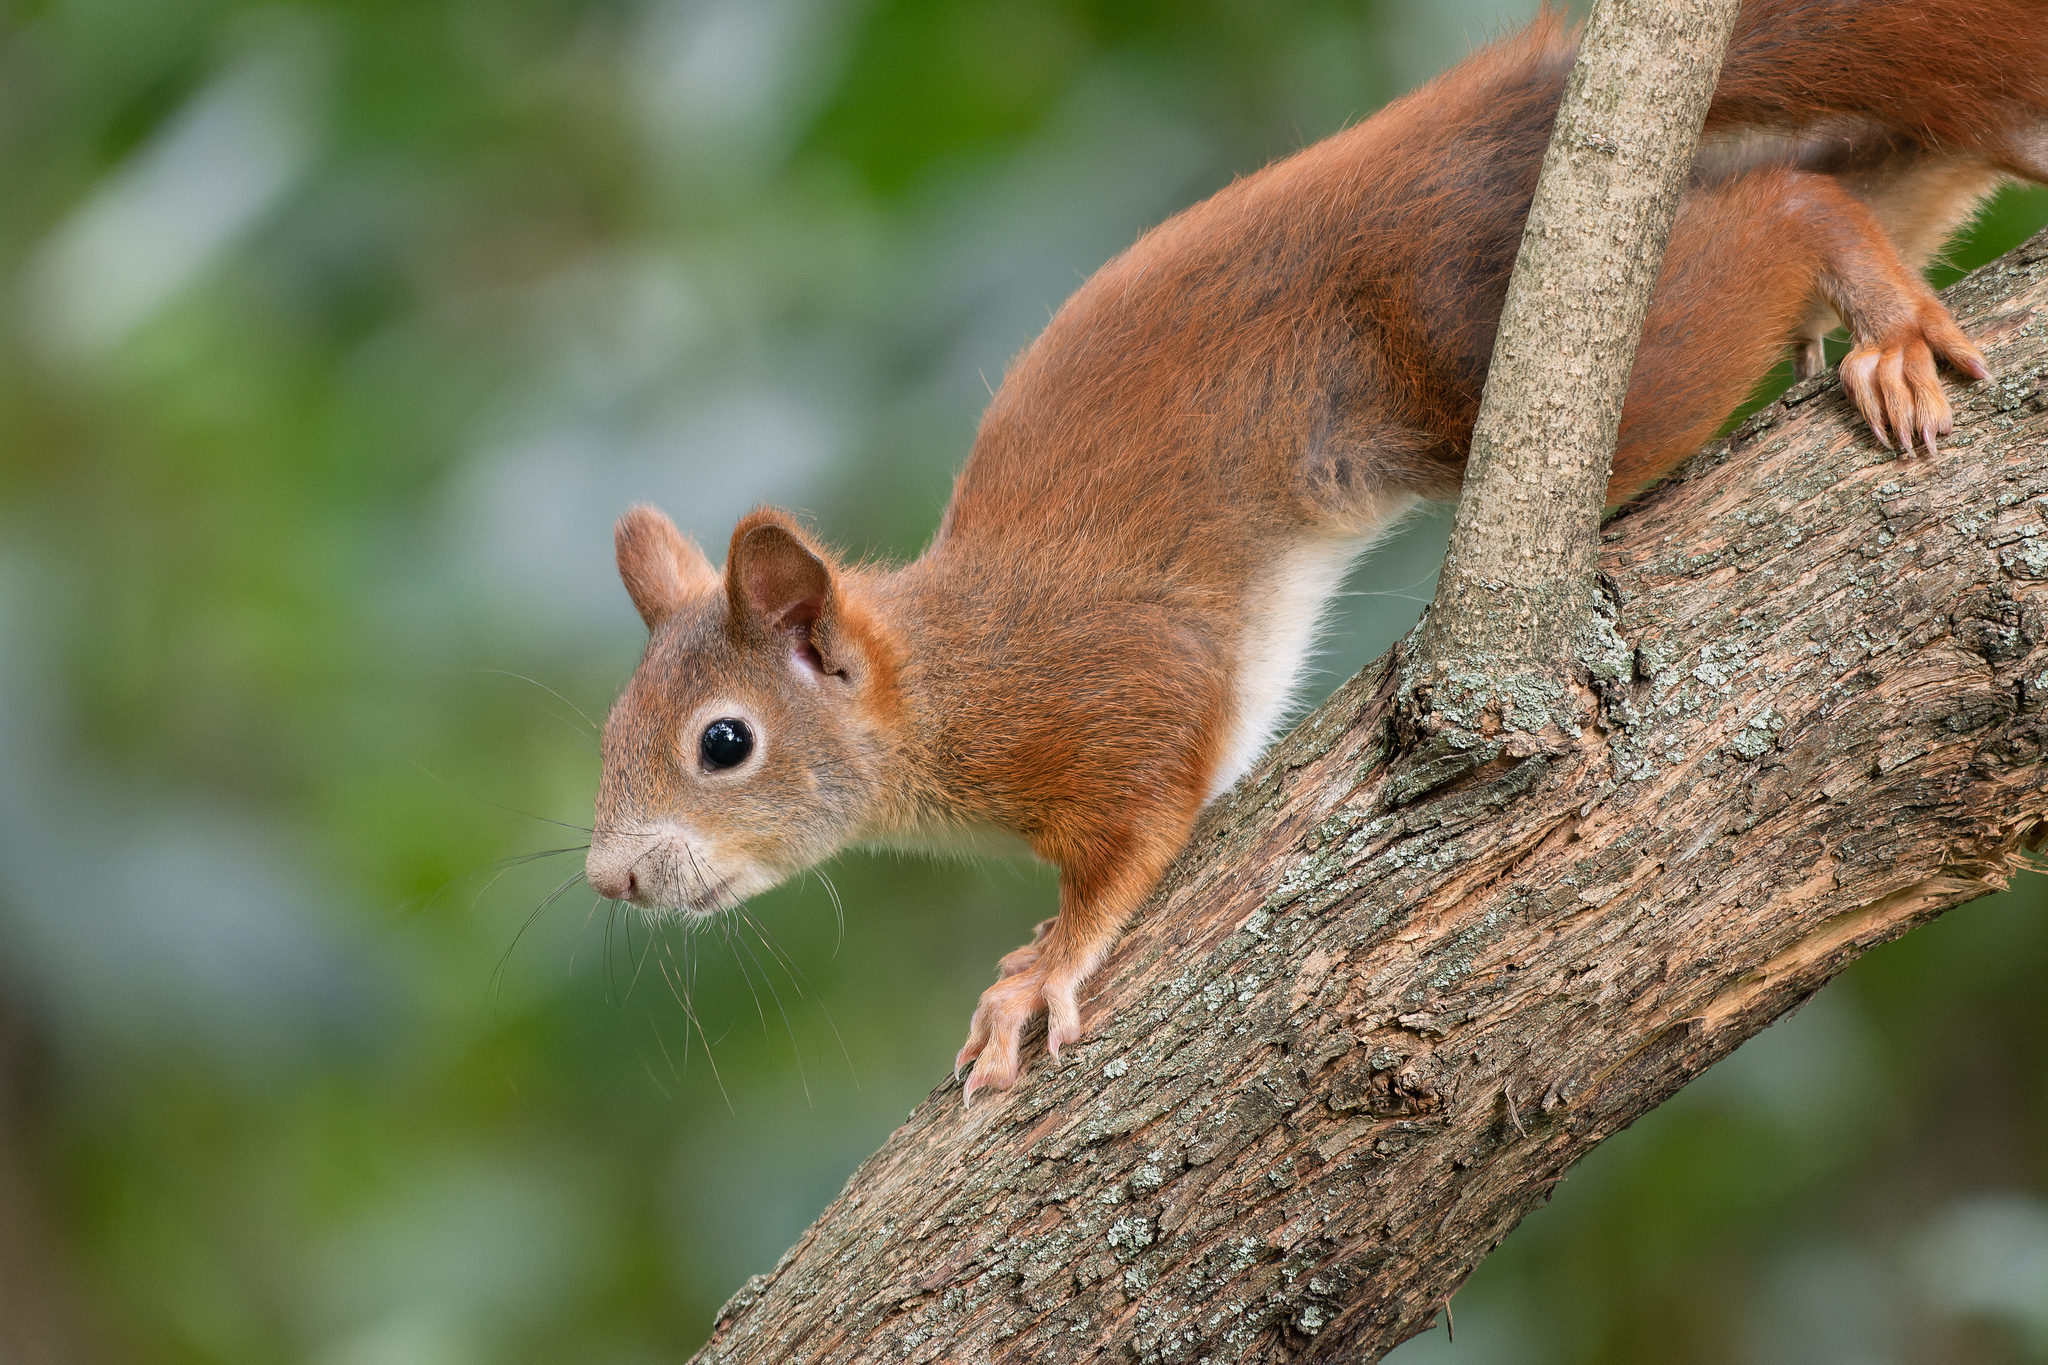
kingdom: Animalia
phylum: Chordata
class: Mammalia
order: Rodentia
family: Sciuridae
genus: Sciurus
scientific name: Sciurus vulgaris
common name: Eurasian red squirrel
